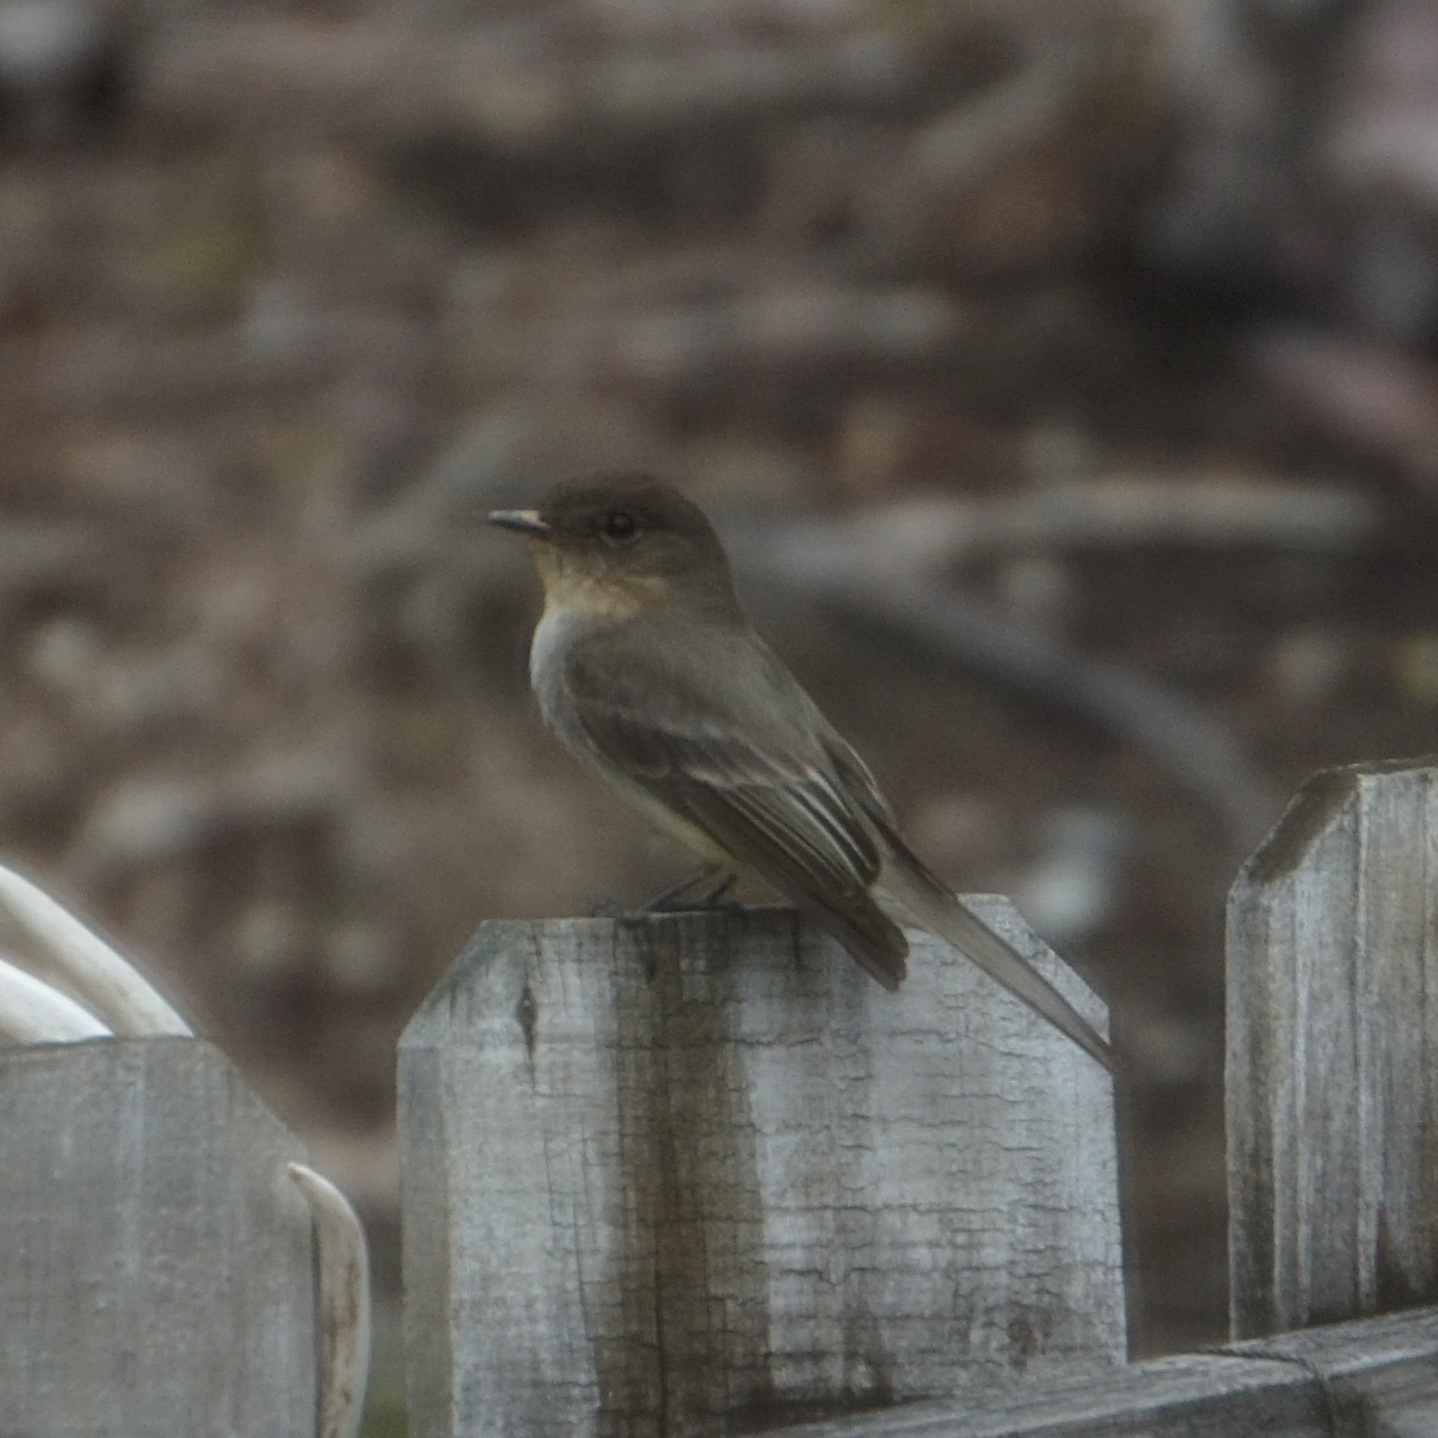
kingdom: Animalia
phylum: Chordata
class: Aves
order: Passeriformes
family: Tyrannidae
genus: Sayornis
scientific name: Sayornis phoebe
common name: Eastern phoebe
